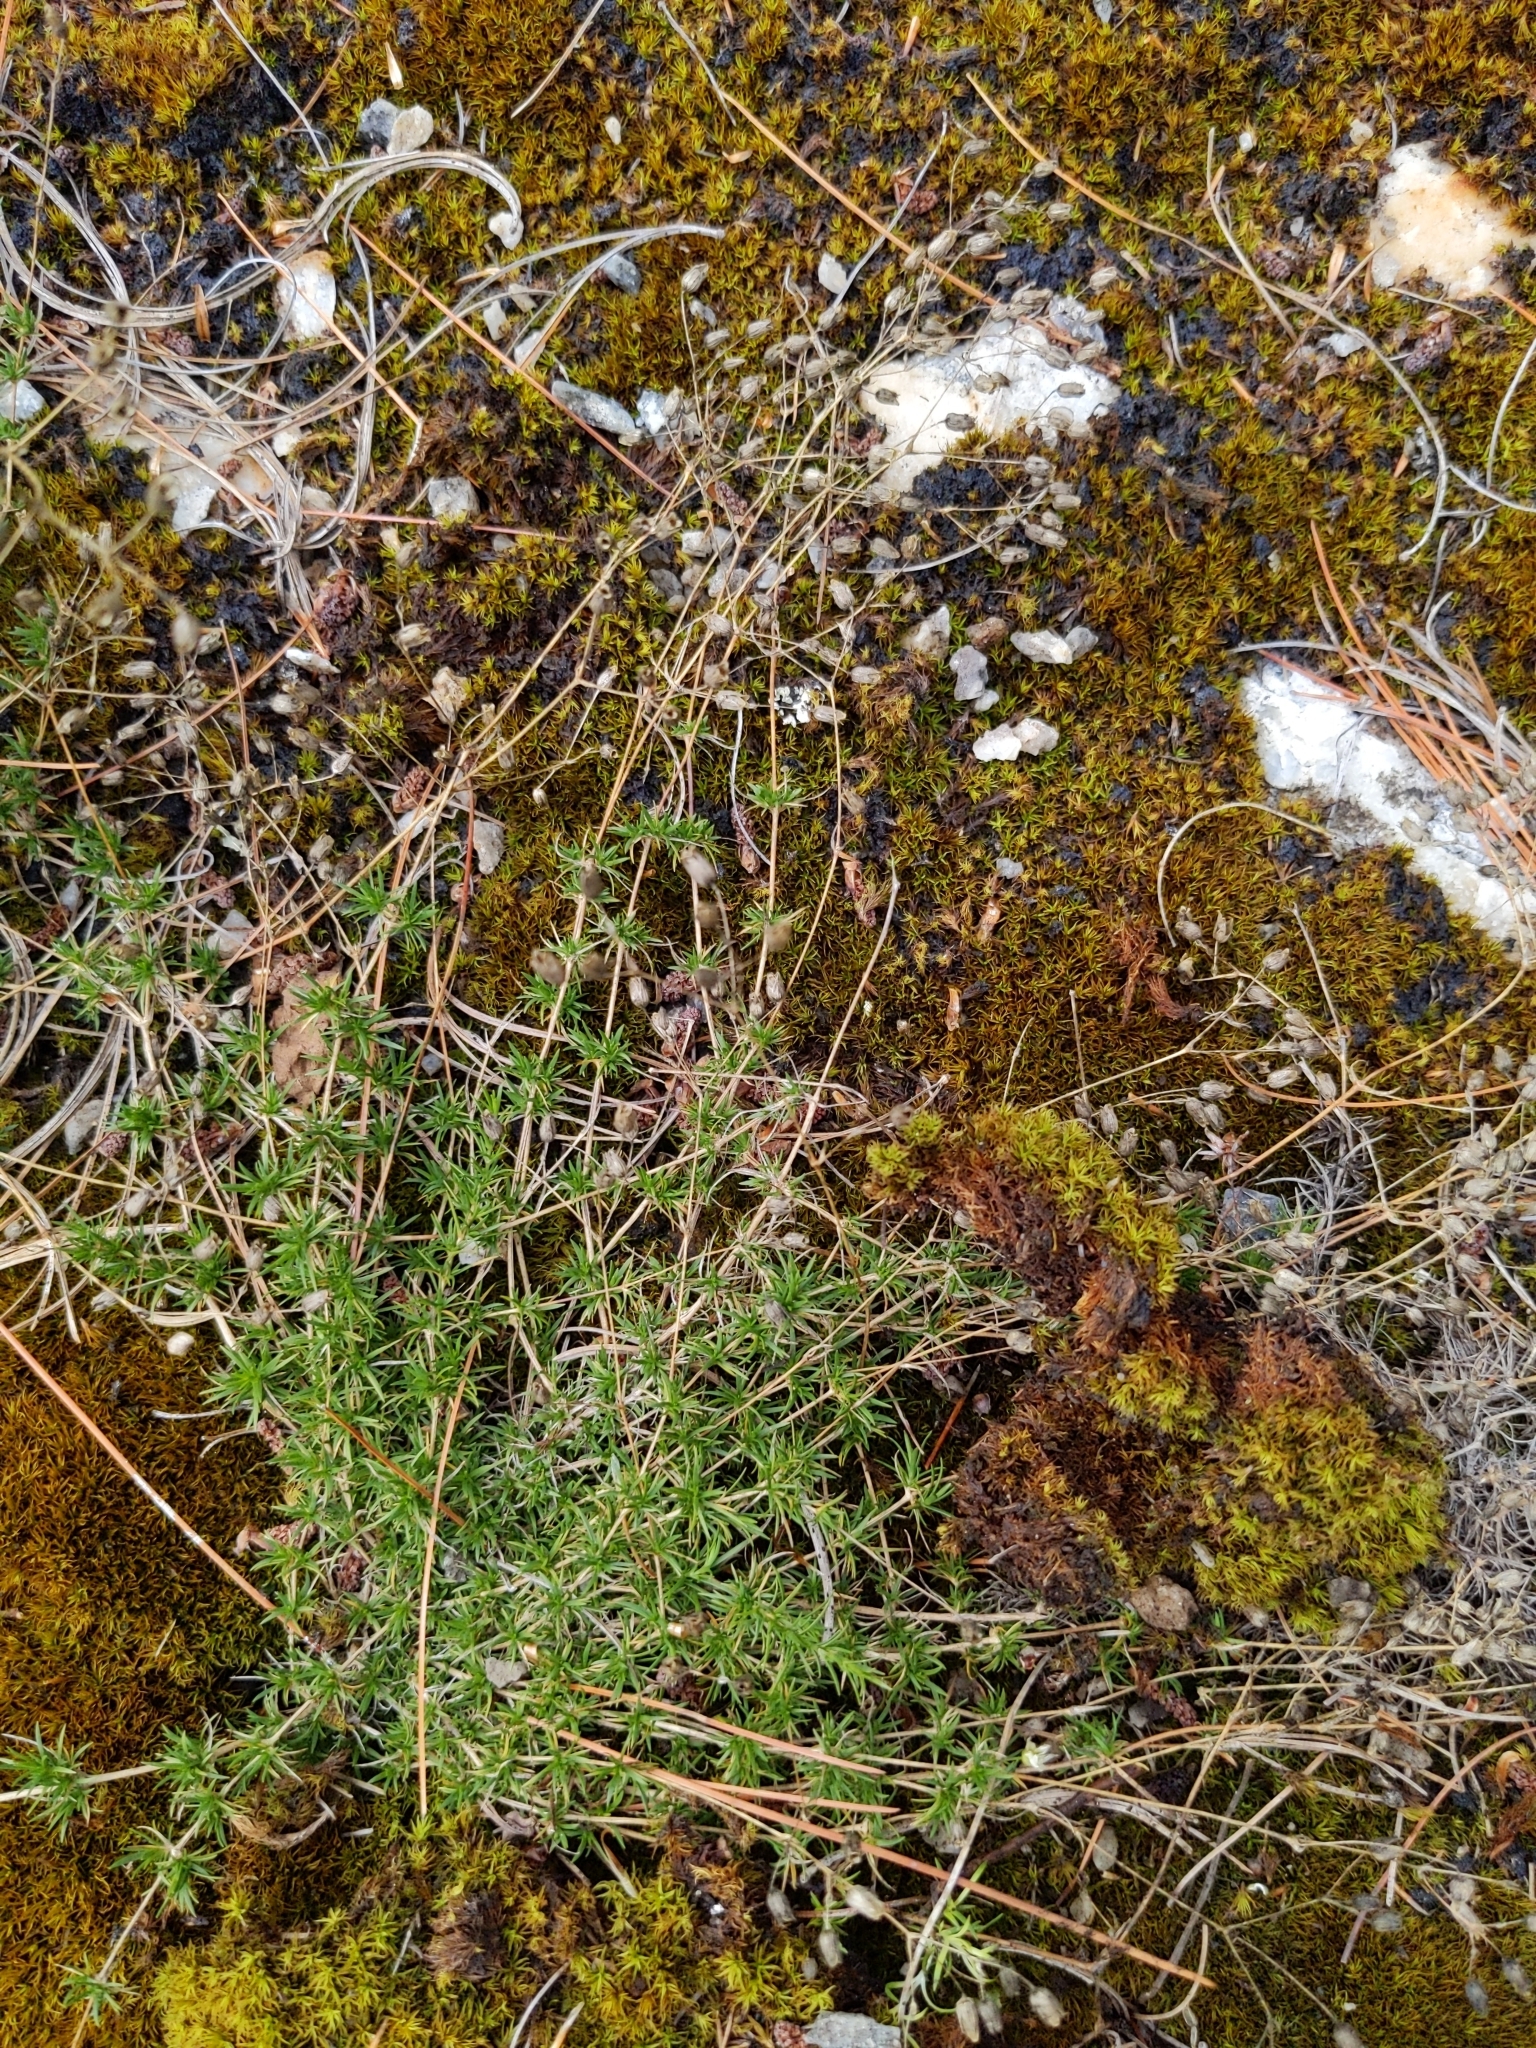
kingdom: Plantae
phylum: Tracheophyta
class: Magnoliopsida
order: Caryophyllales
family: Caryophyllaceae
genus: Sabulina
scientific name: Sabulina michauxii
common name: Michaux's stitchwort
